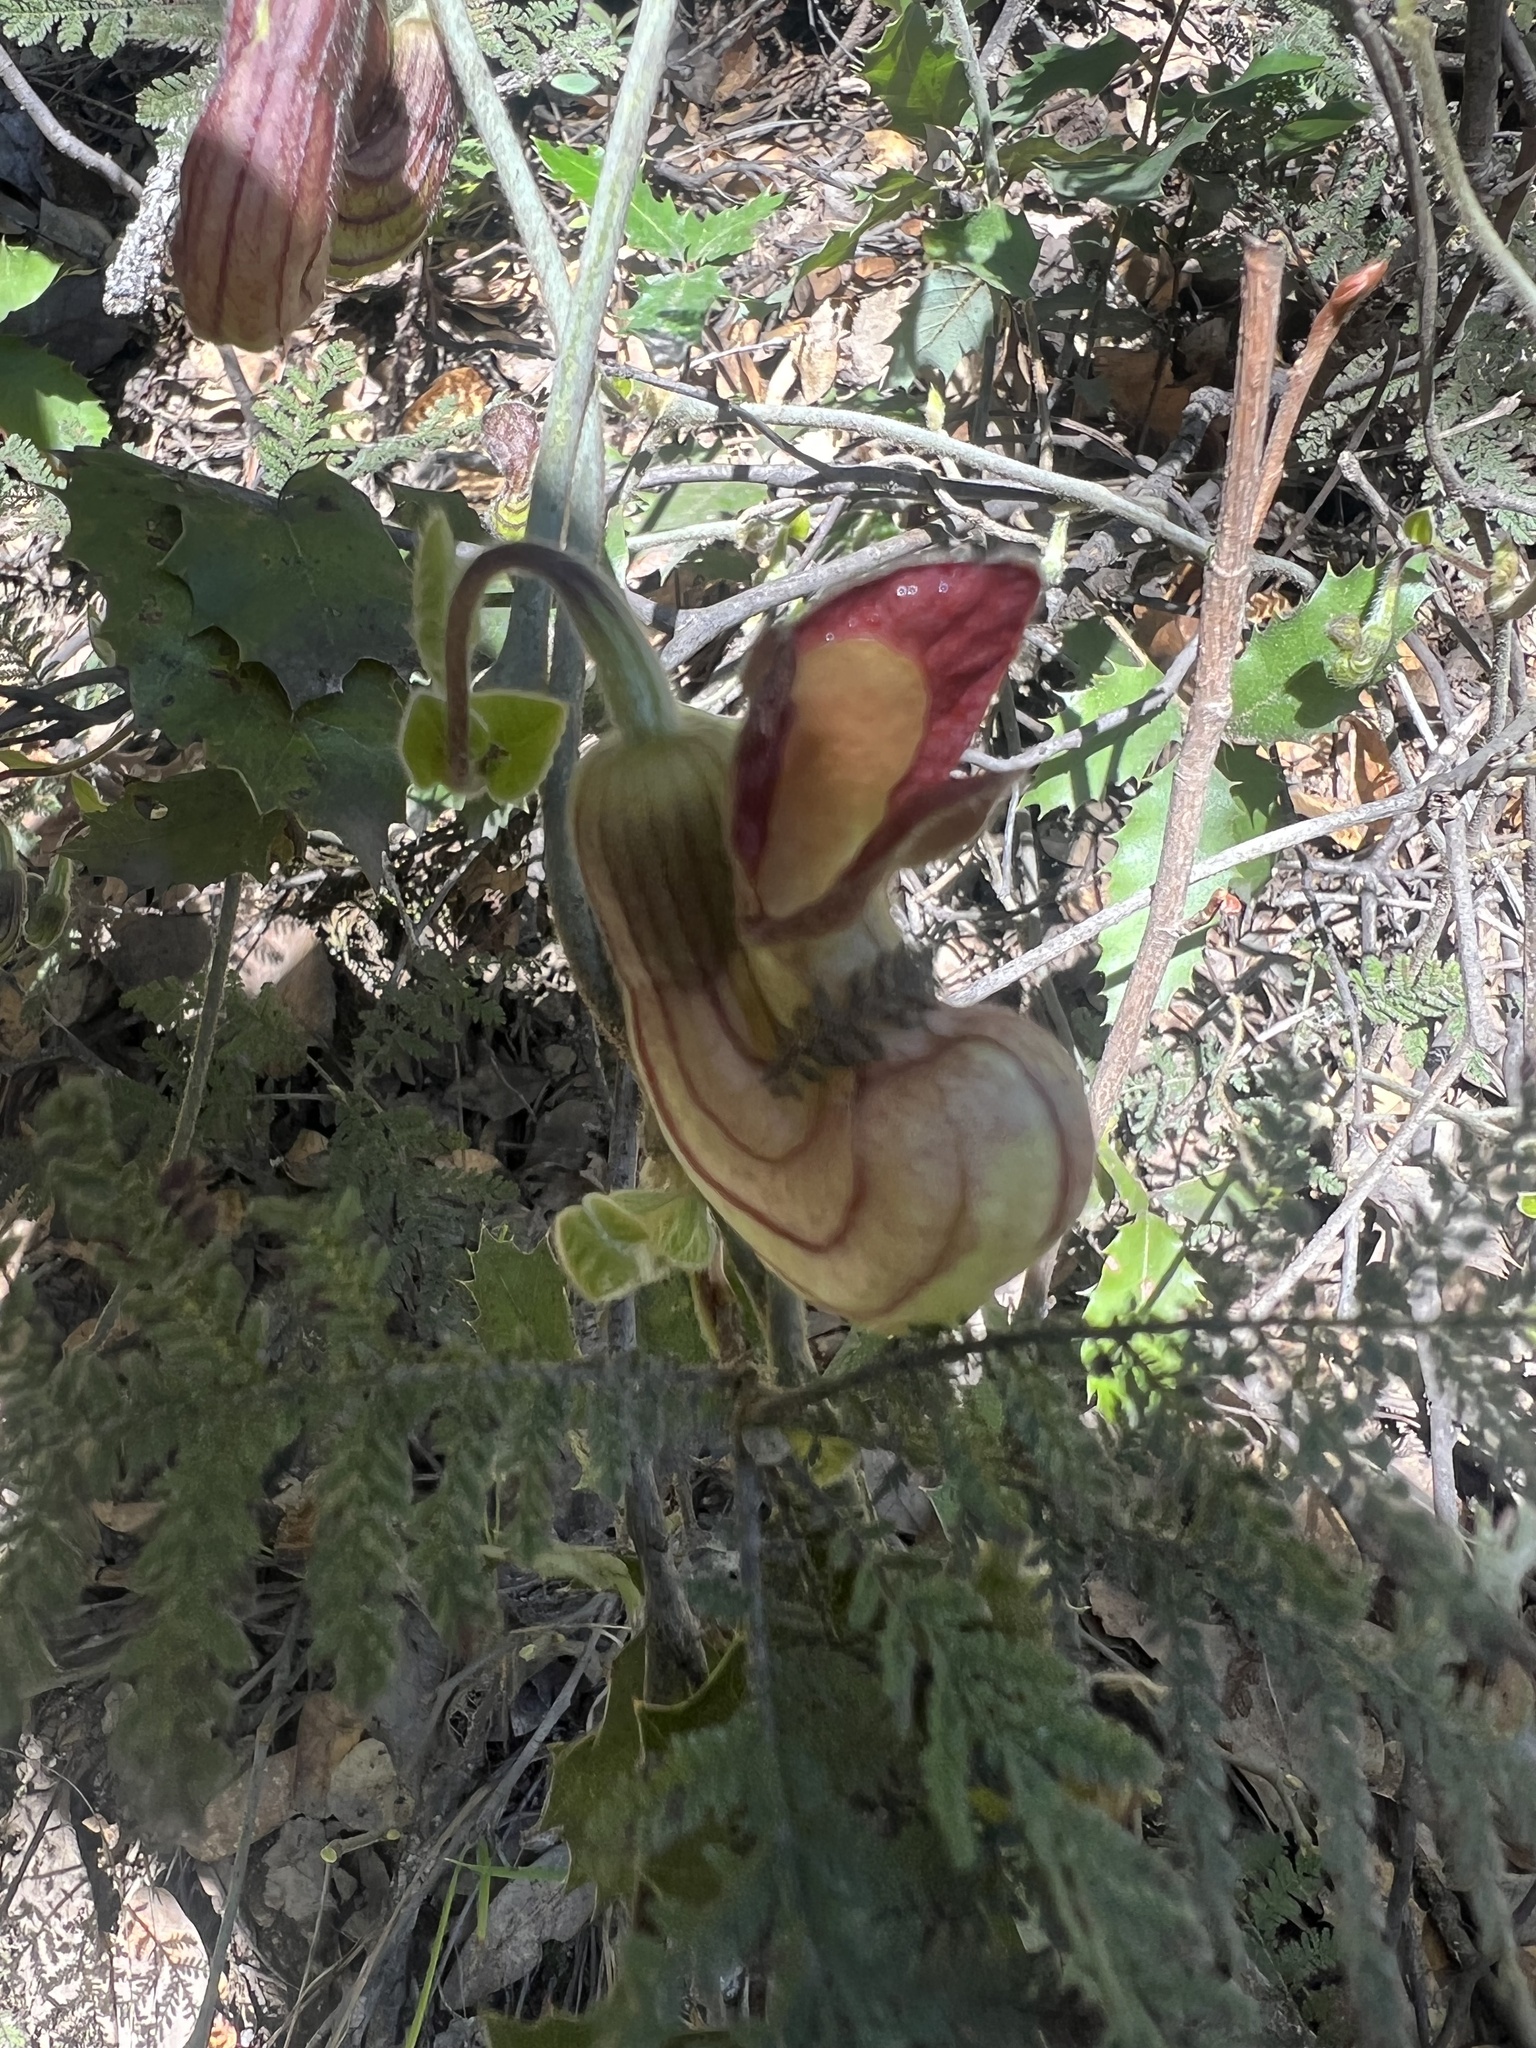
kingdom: Plantae
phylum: Tracheophyta
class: Magnoliopsida
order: Piperales
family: Aristolochiaceae
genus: Isotrema
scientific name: Isotrema californicum
